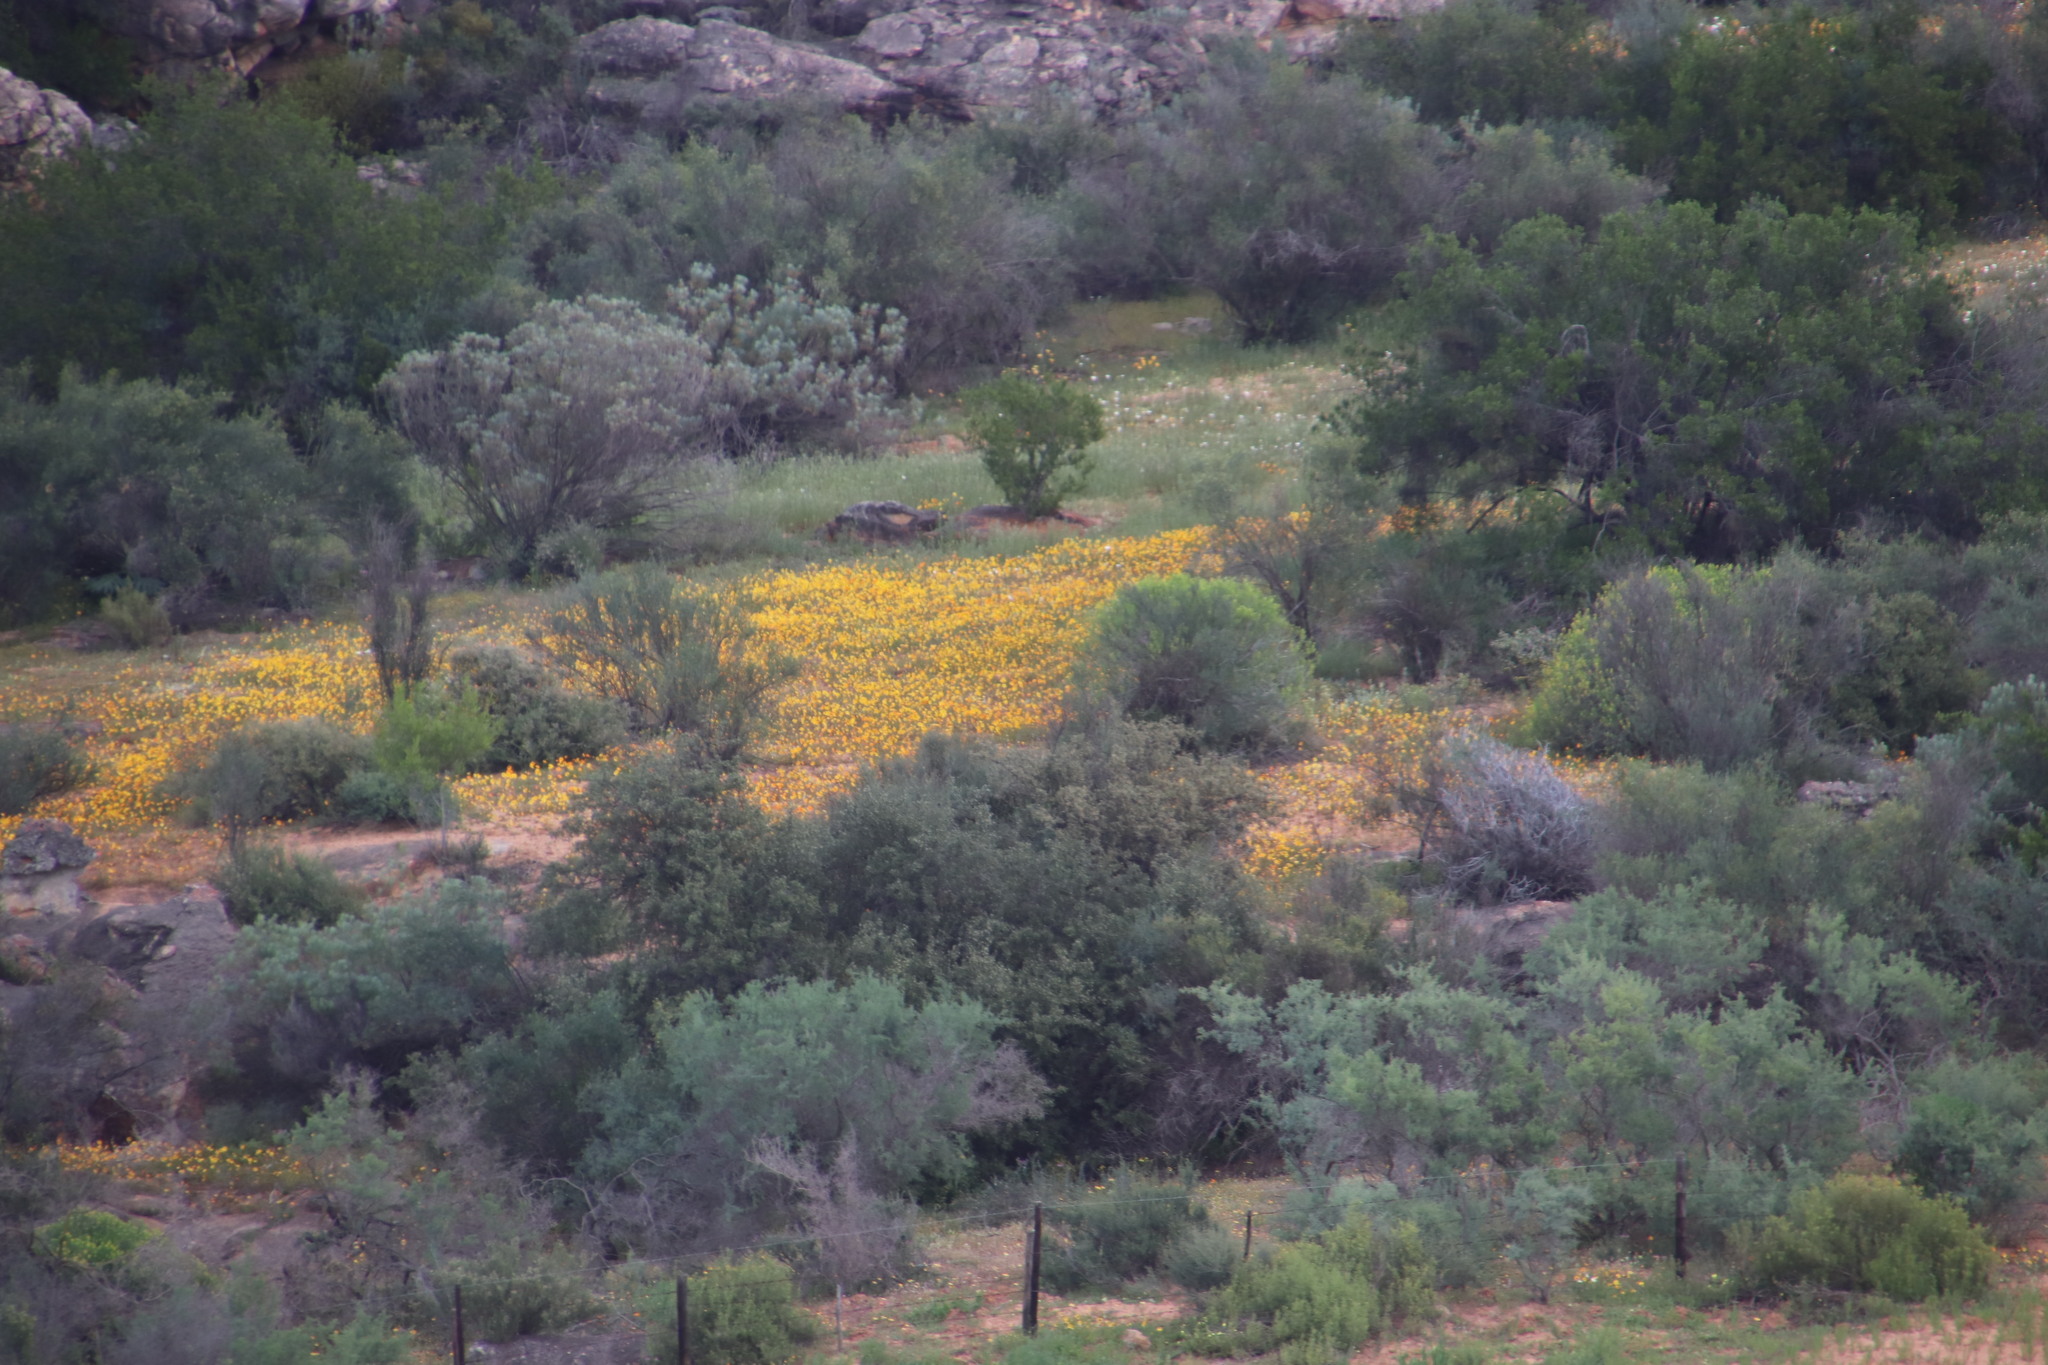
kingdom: Plantae
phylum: Tracheophyta
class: Magnoliopsida
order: Asterales
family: Asteraceae
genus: Dimorphotheca
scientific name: Dimorphotheca sinuata
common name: Glandular cape marigold
